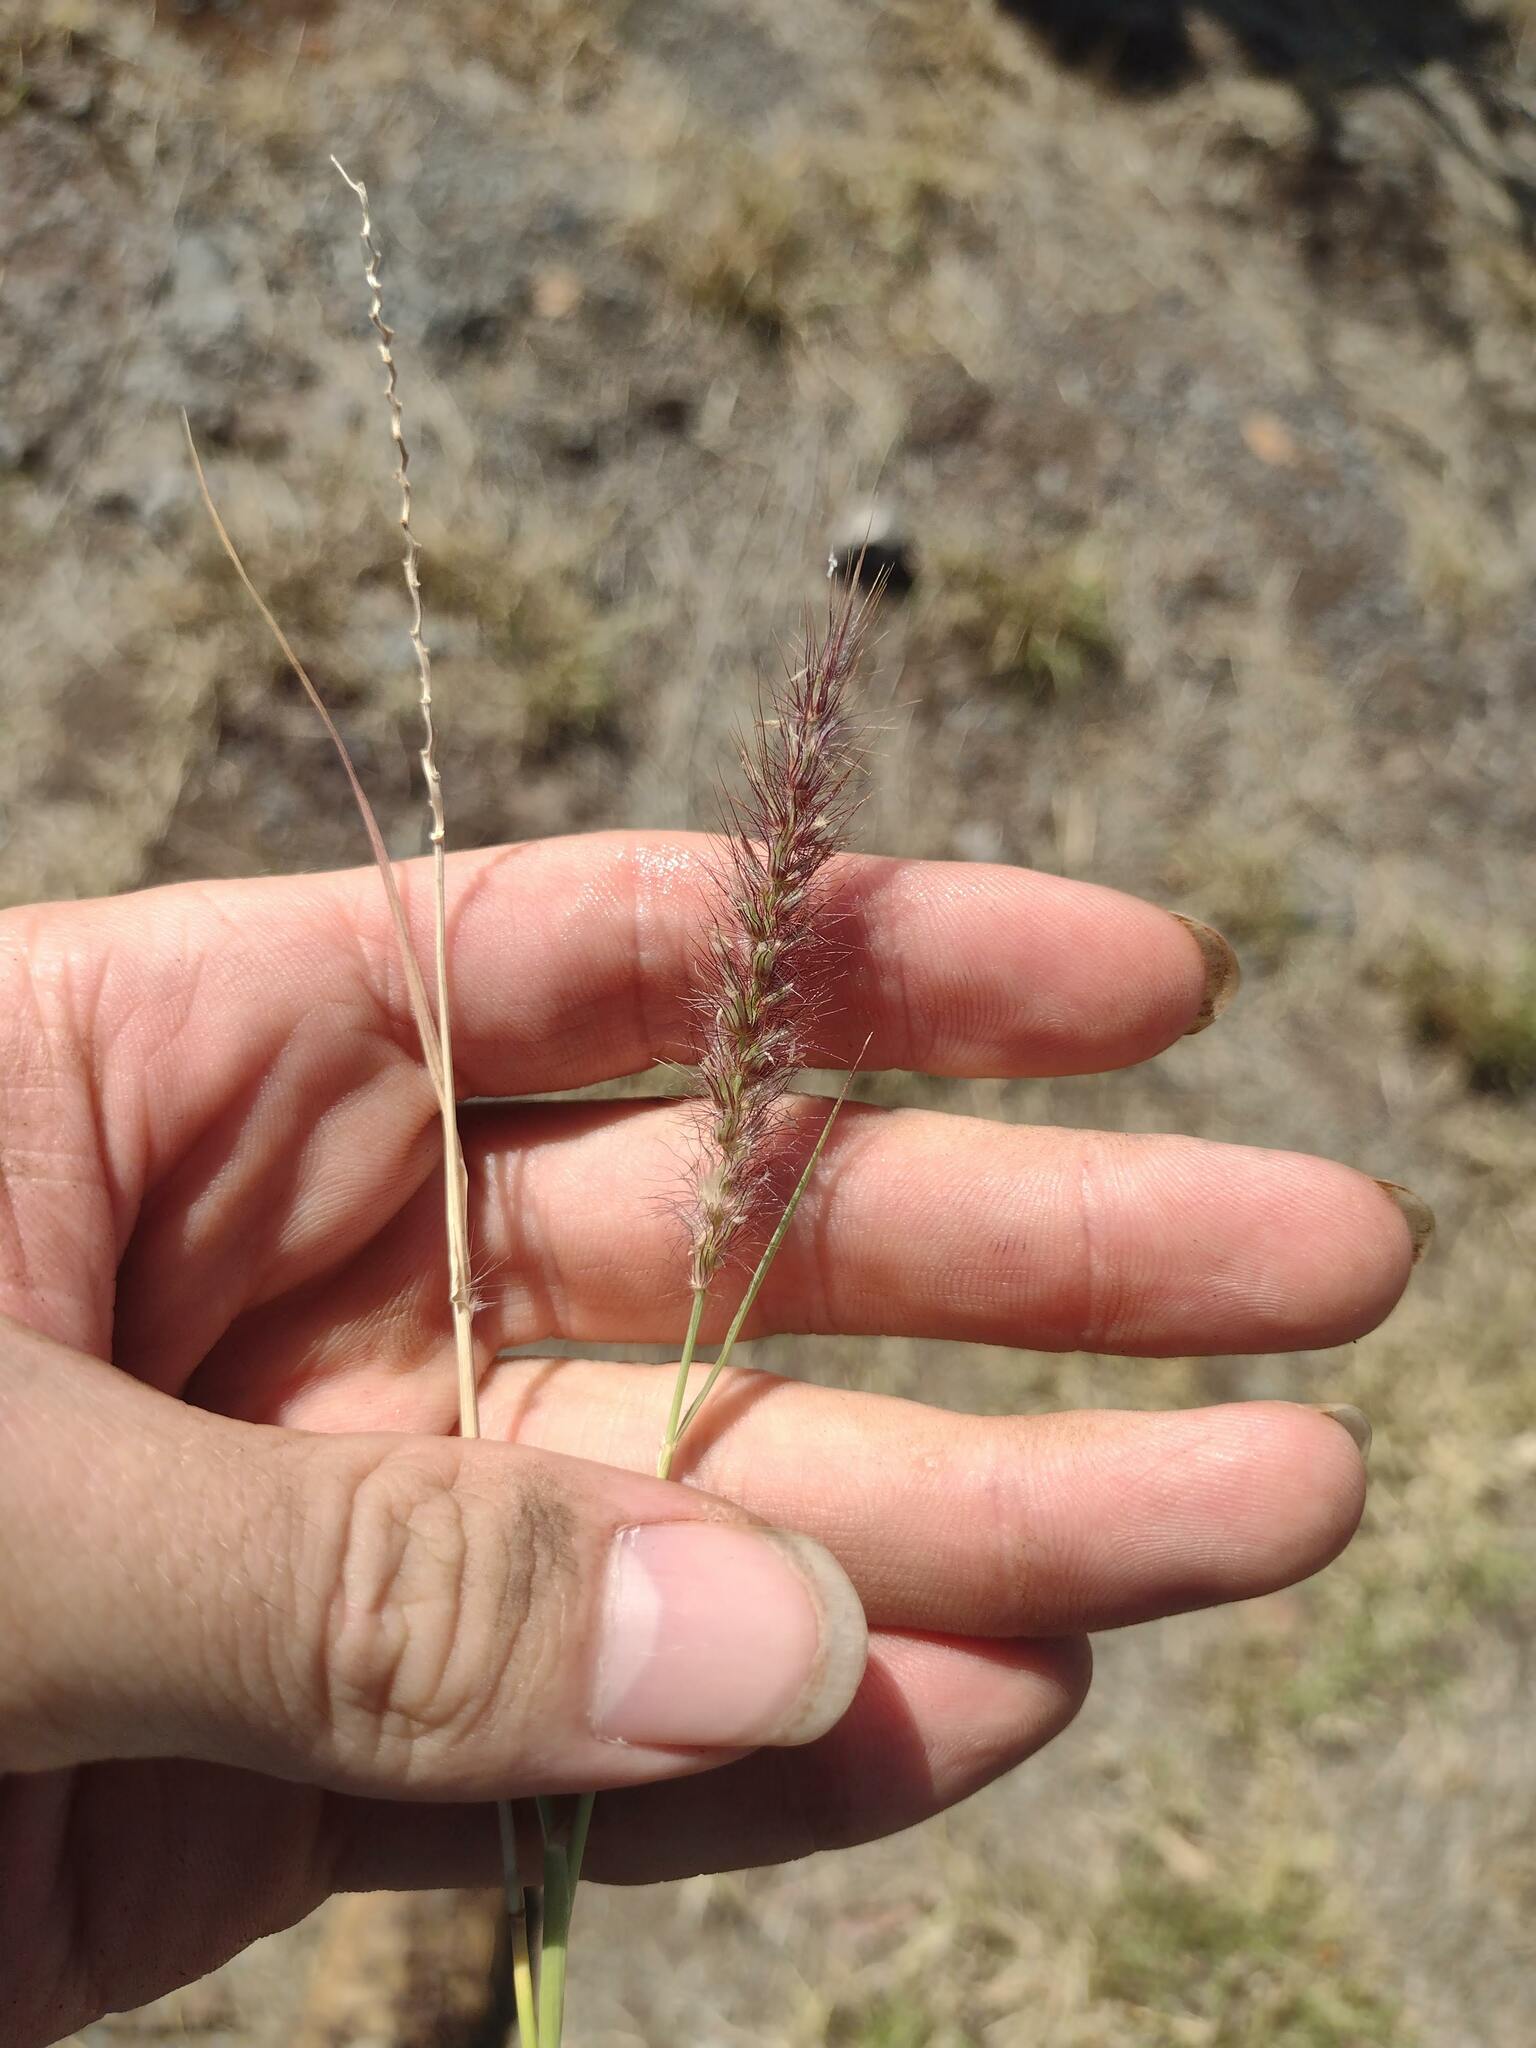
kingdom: Plantae
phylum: Tracheophyta
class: Liliopsida
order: Poales
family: Poaceae
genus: Cenchrus
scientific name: Cenchrus ciliaris
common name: Buffelgrass
